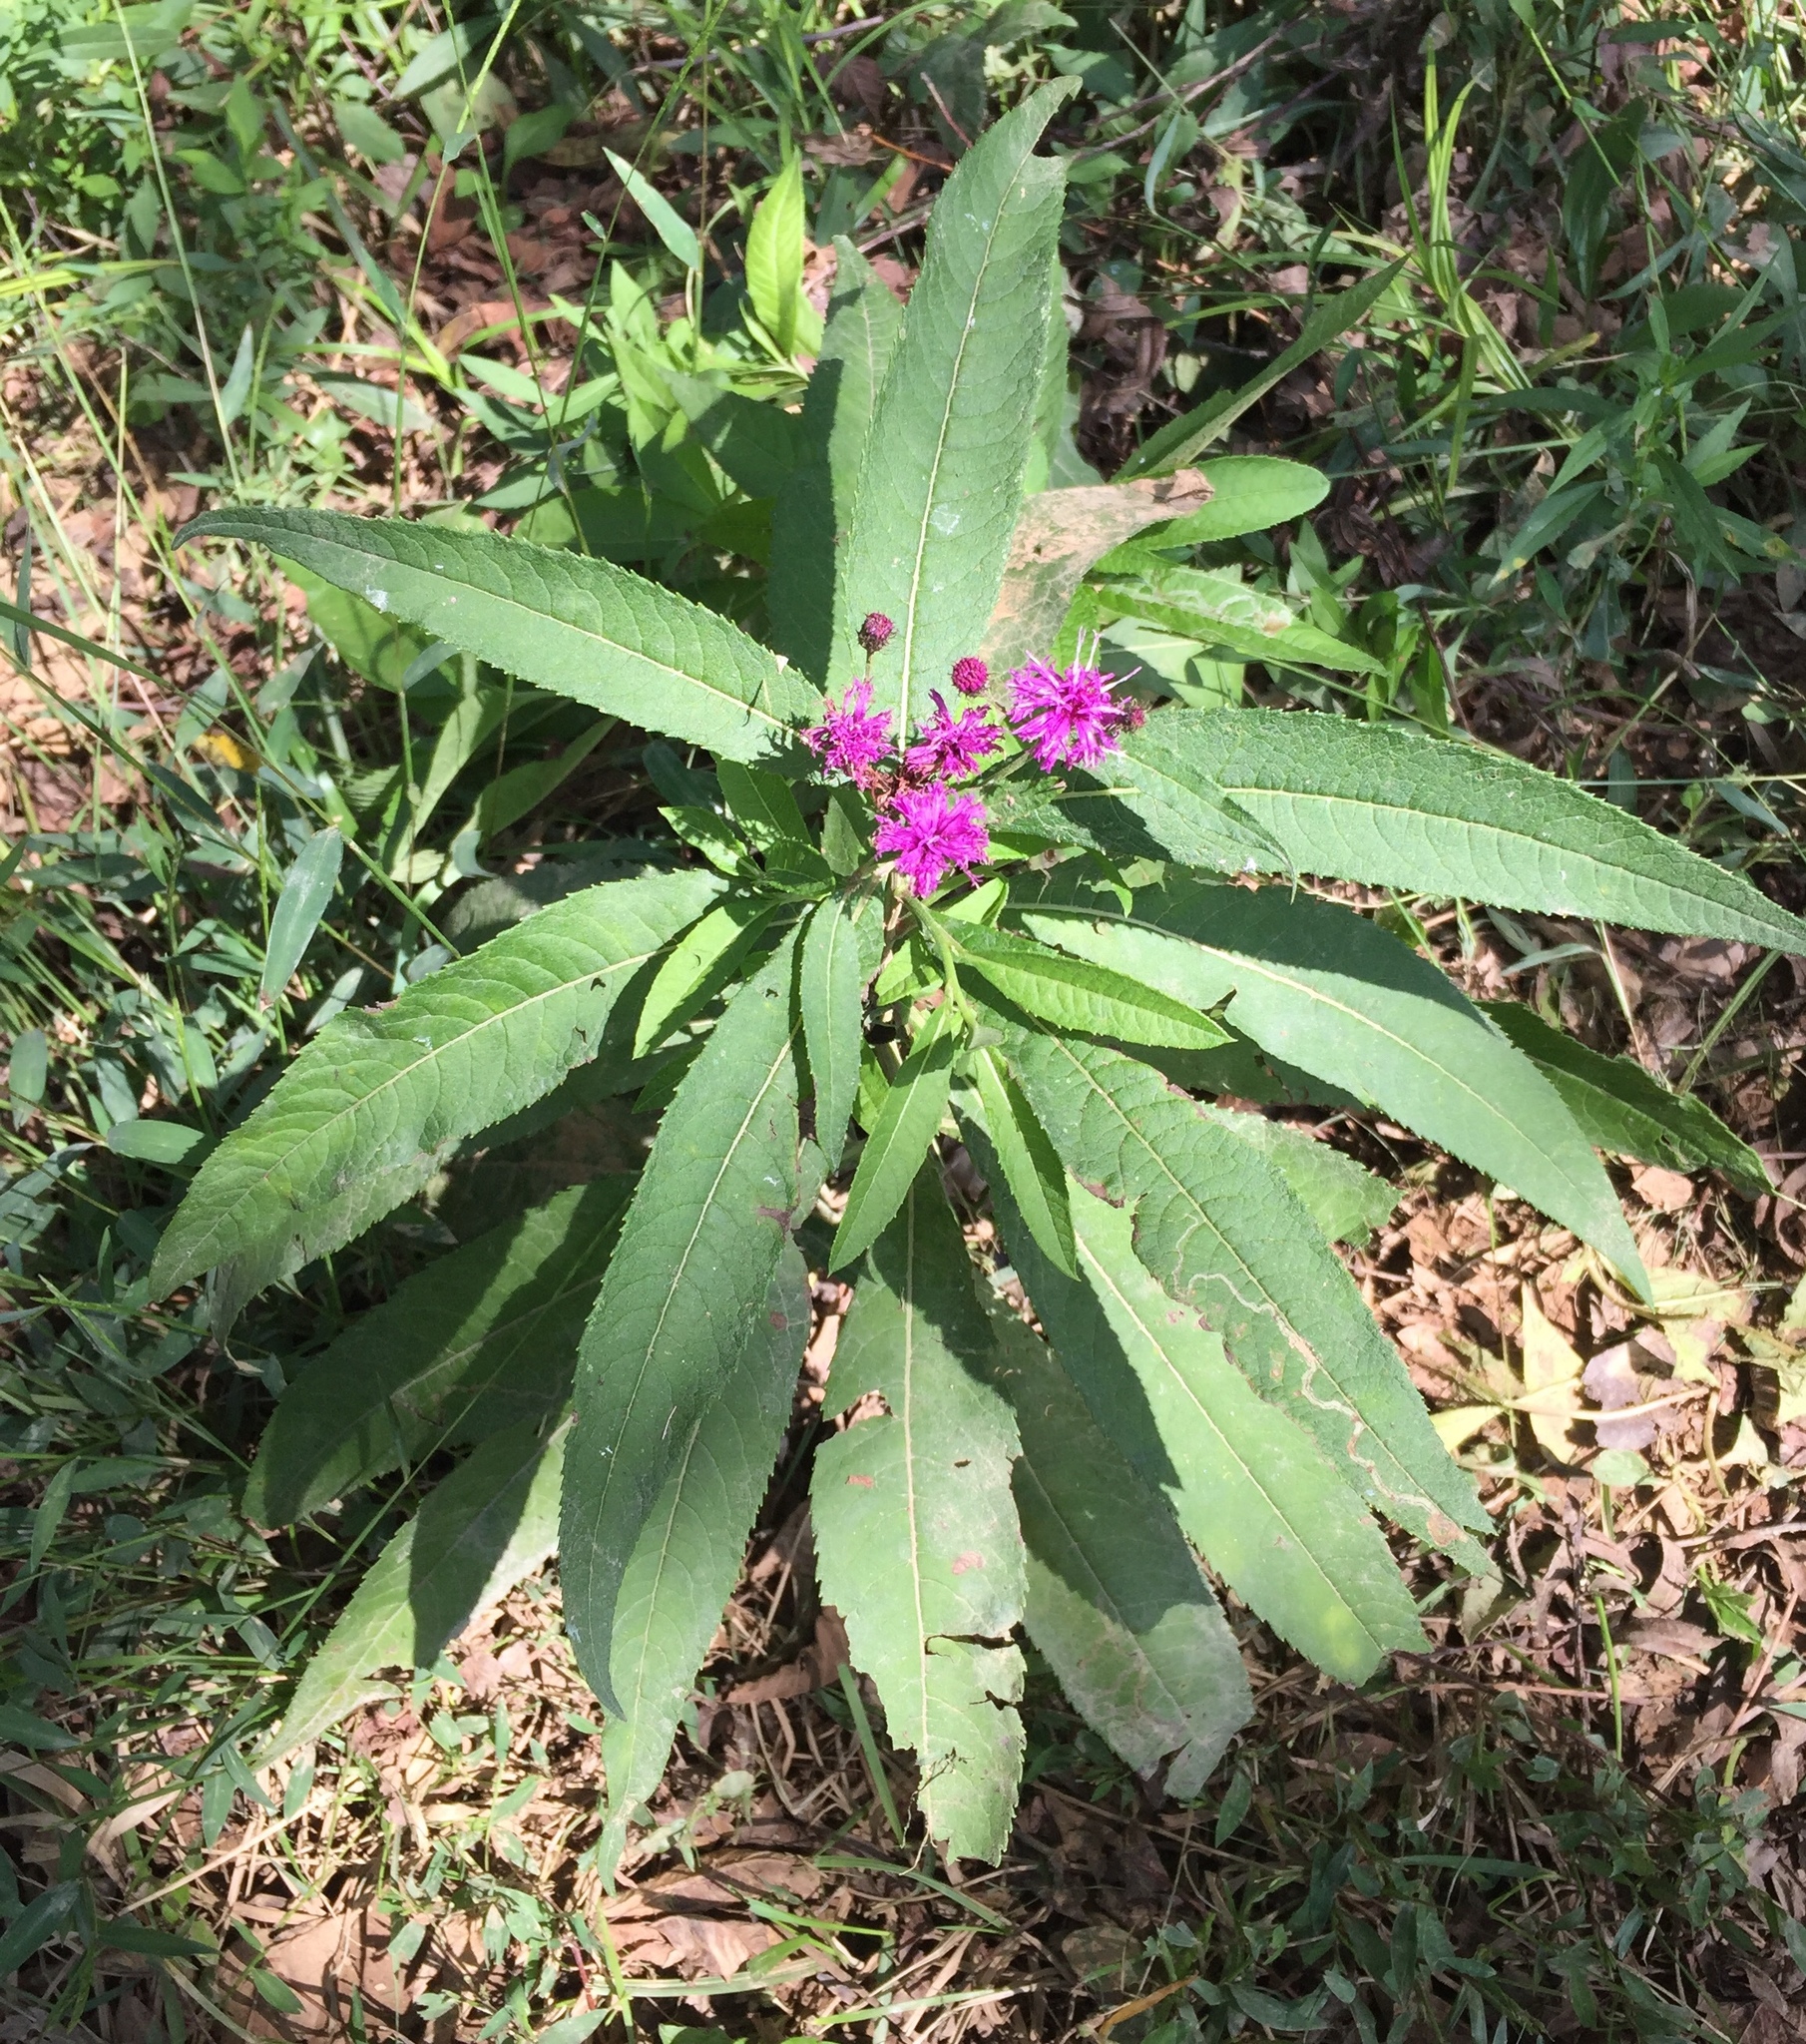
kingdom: Plantae
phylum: Tracheophyta
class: Magnoliopsida
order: Asterales
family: Asteraceae
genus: Vernonia
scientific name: Vernonia noveboracensis
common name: New york ironweed
